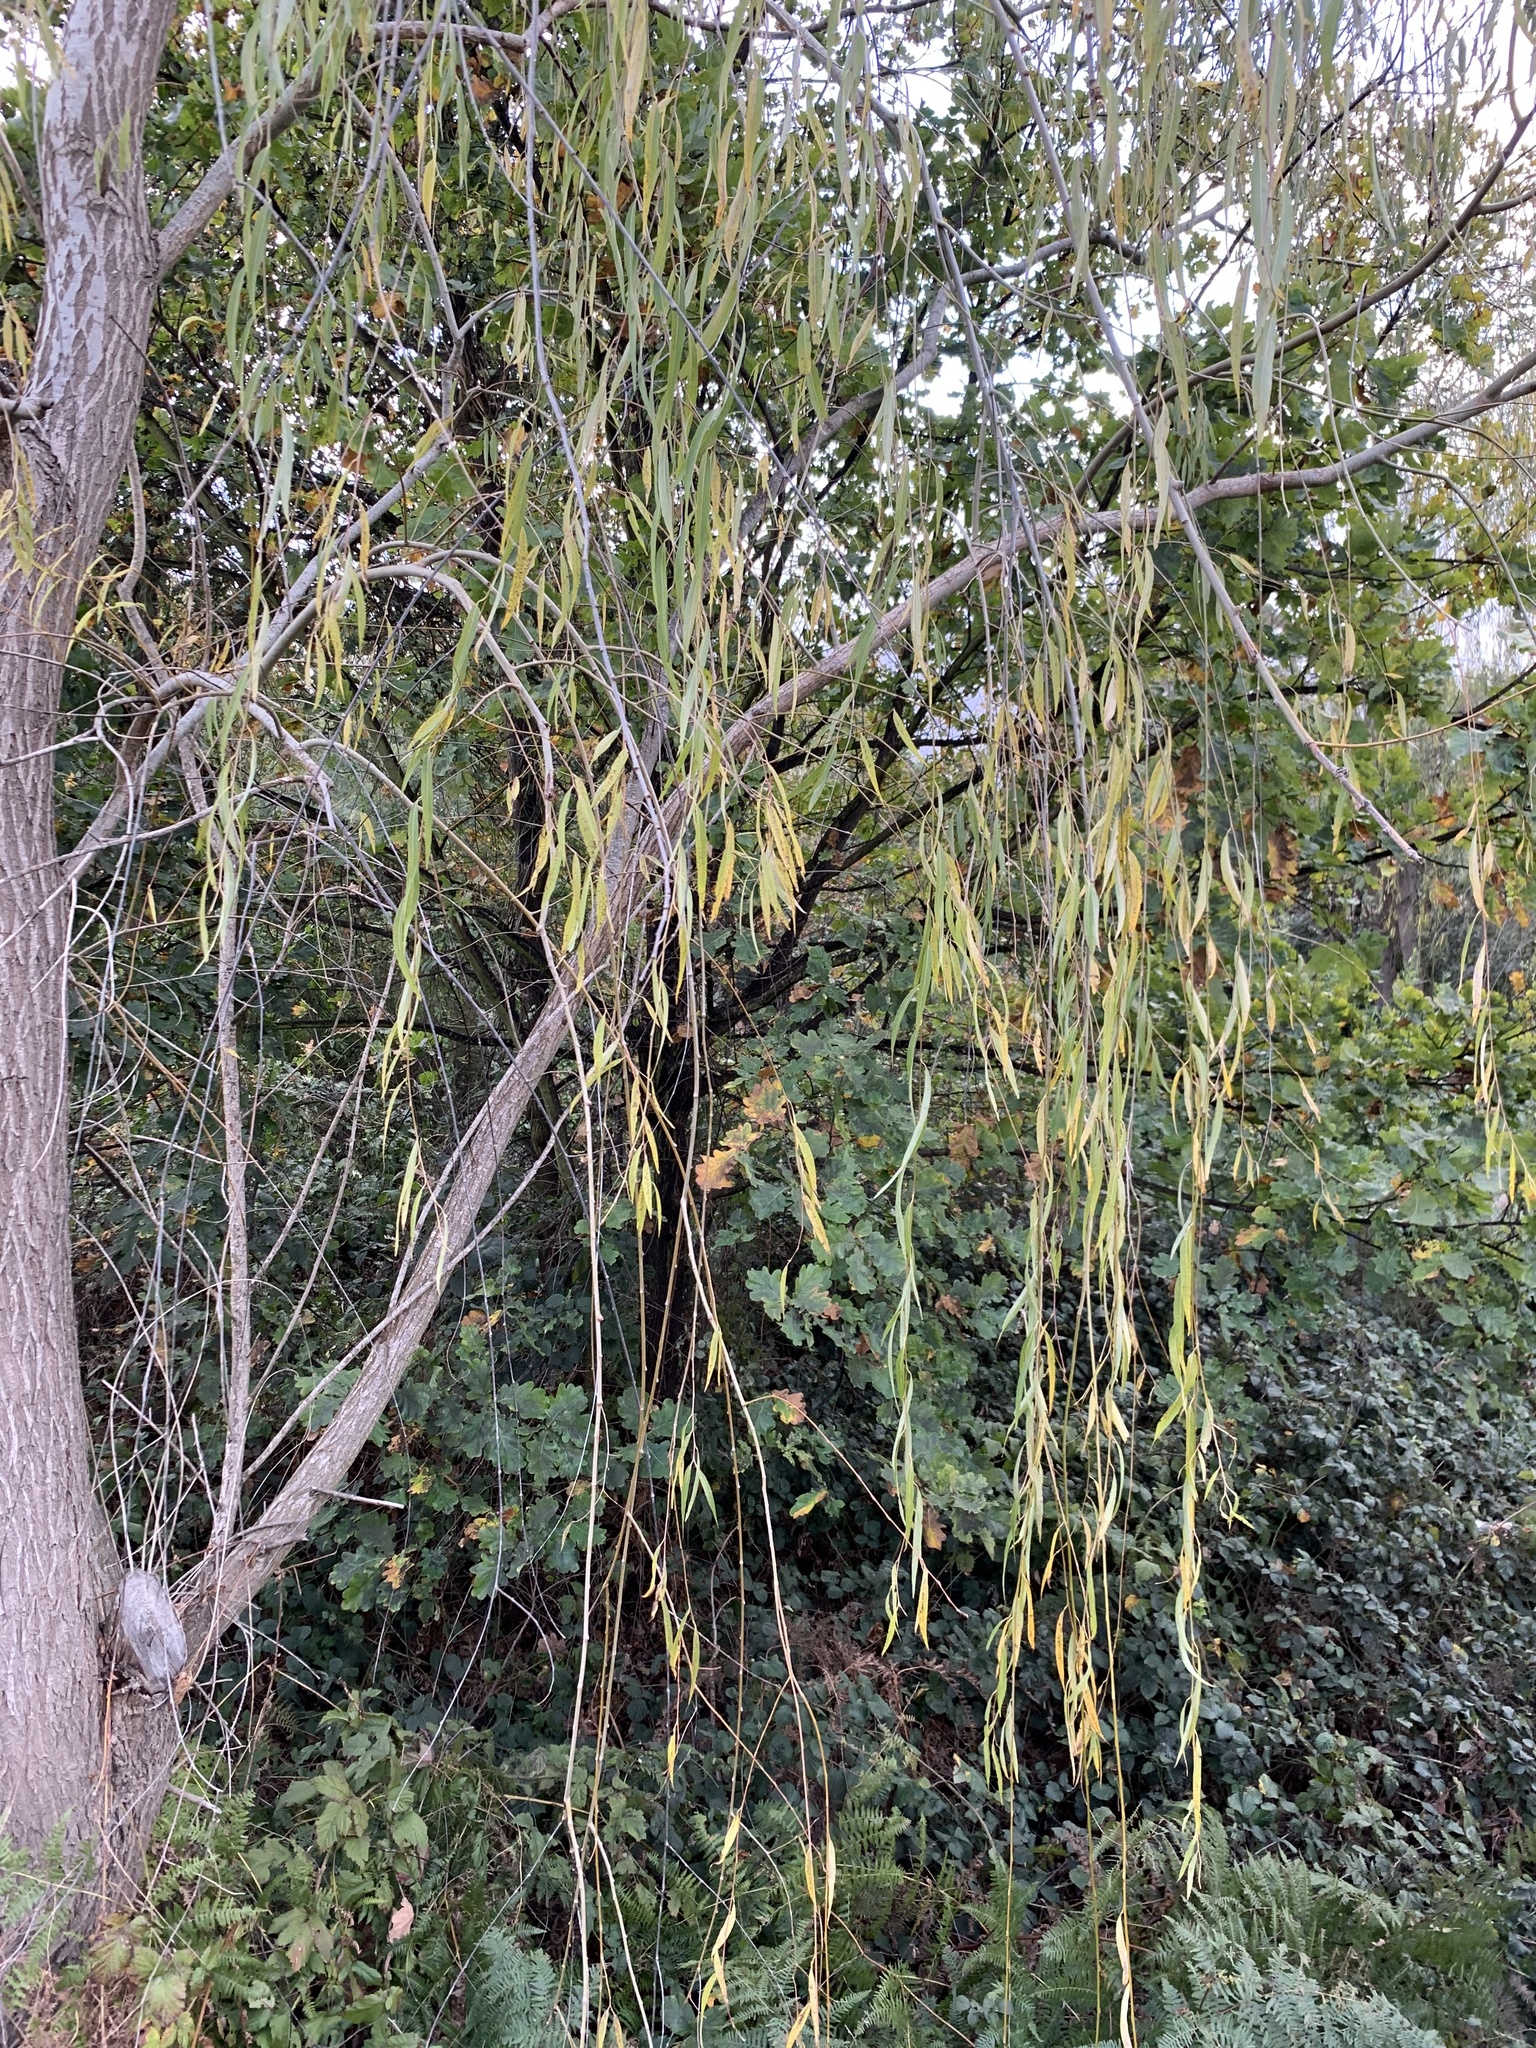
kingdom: Plantae
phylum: Tracheophyta
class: Magnoliopsida
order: Malpighiales
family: Salicaceae
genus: Salix
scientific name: Salix babylonica
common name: Weeping willow
